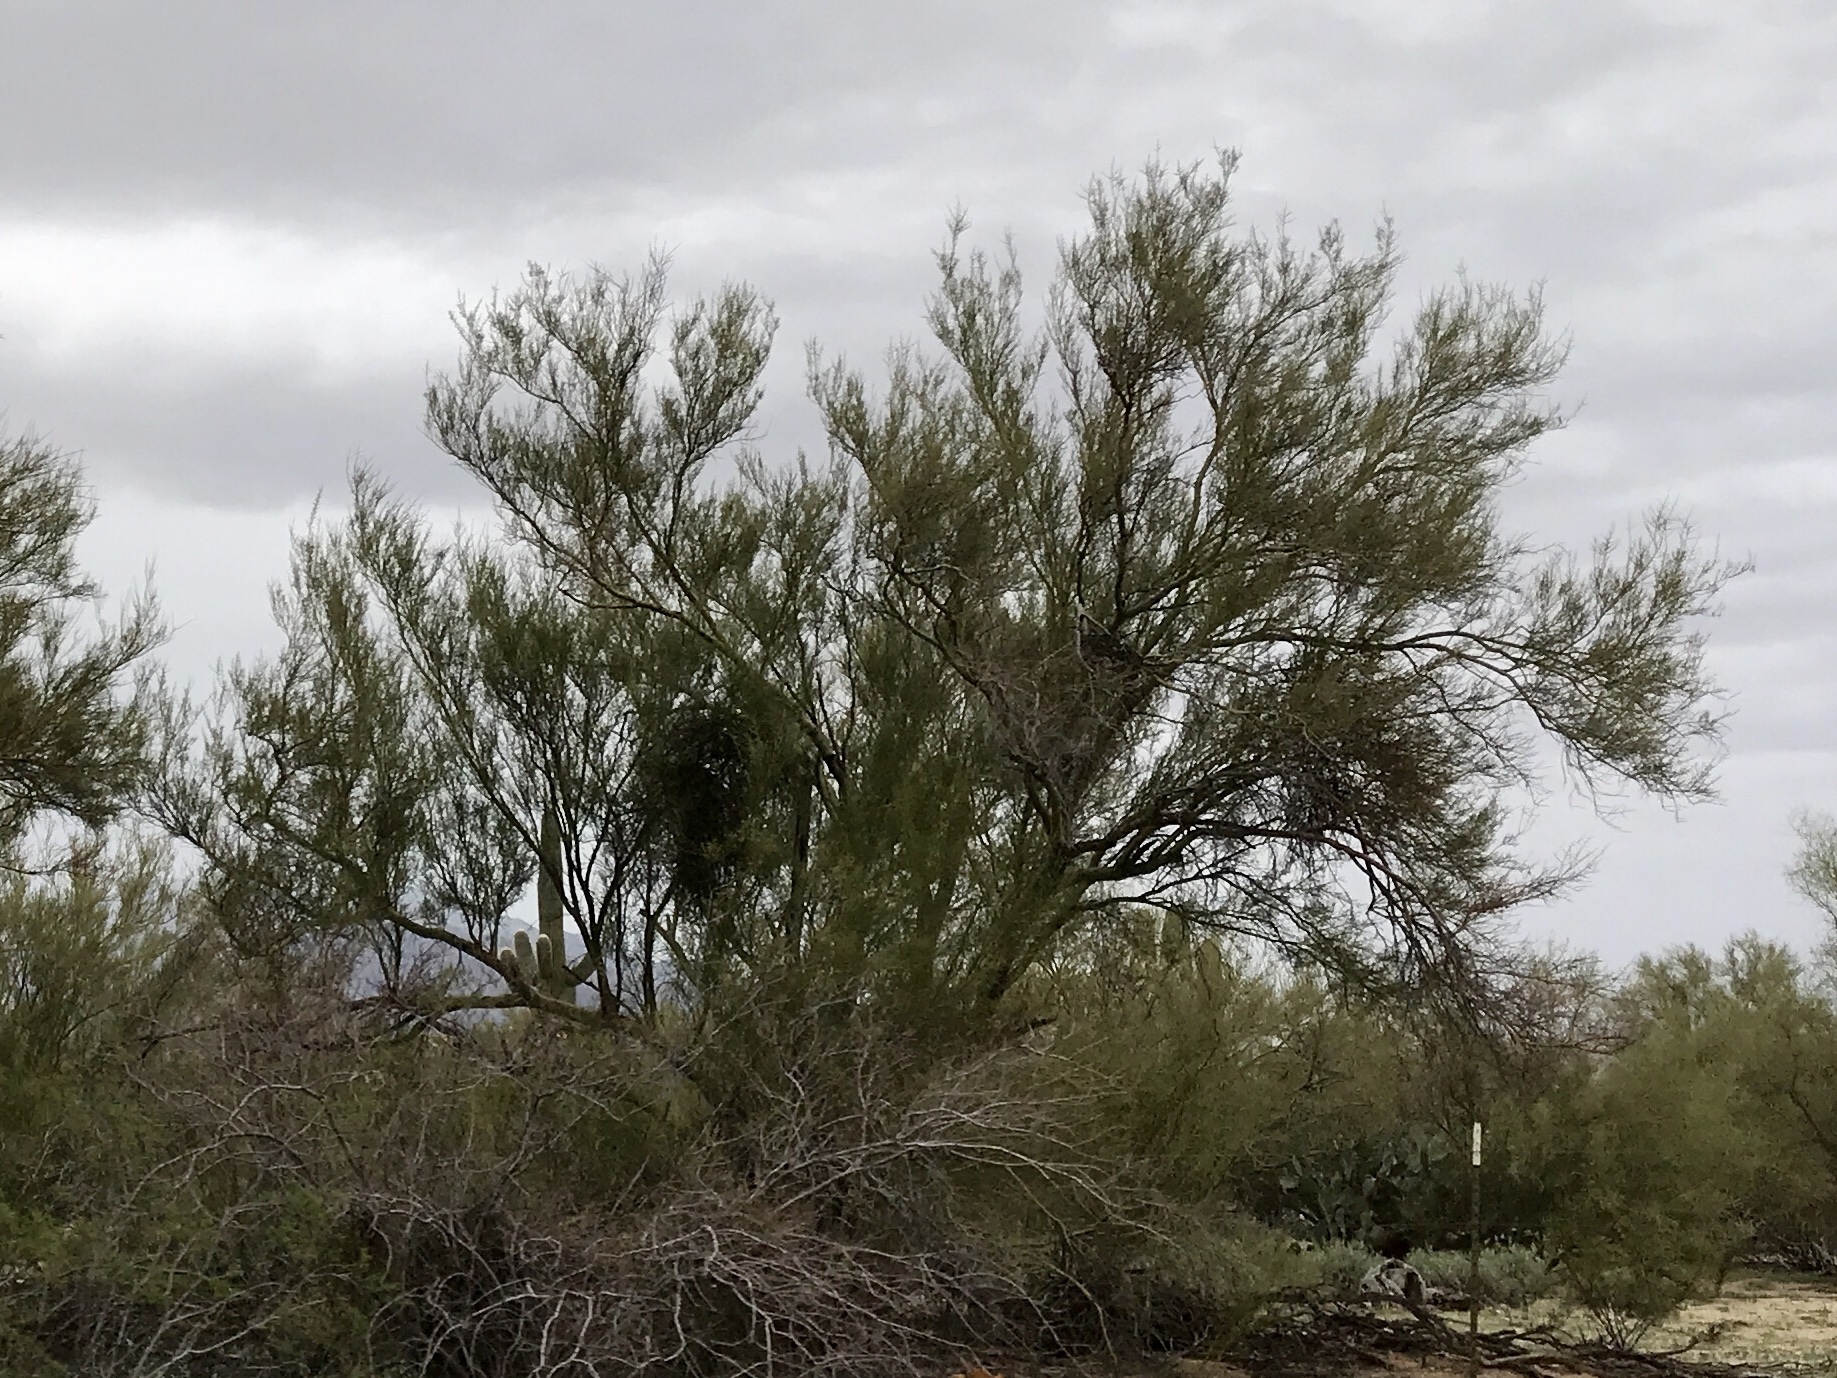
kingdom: Plantae
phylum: Tracheophyta
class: Magnoliopsida
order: Fabales
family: Fabaceae
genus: Parkinsonia
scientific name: Parkinsonia microphylla
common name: Yellow paloverde
